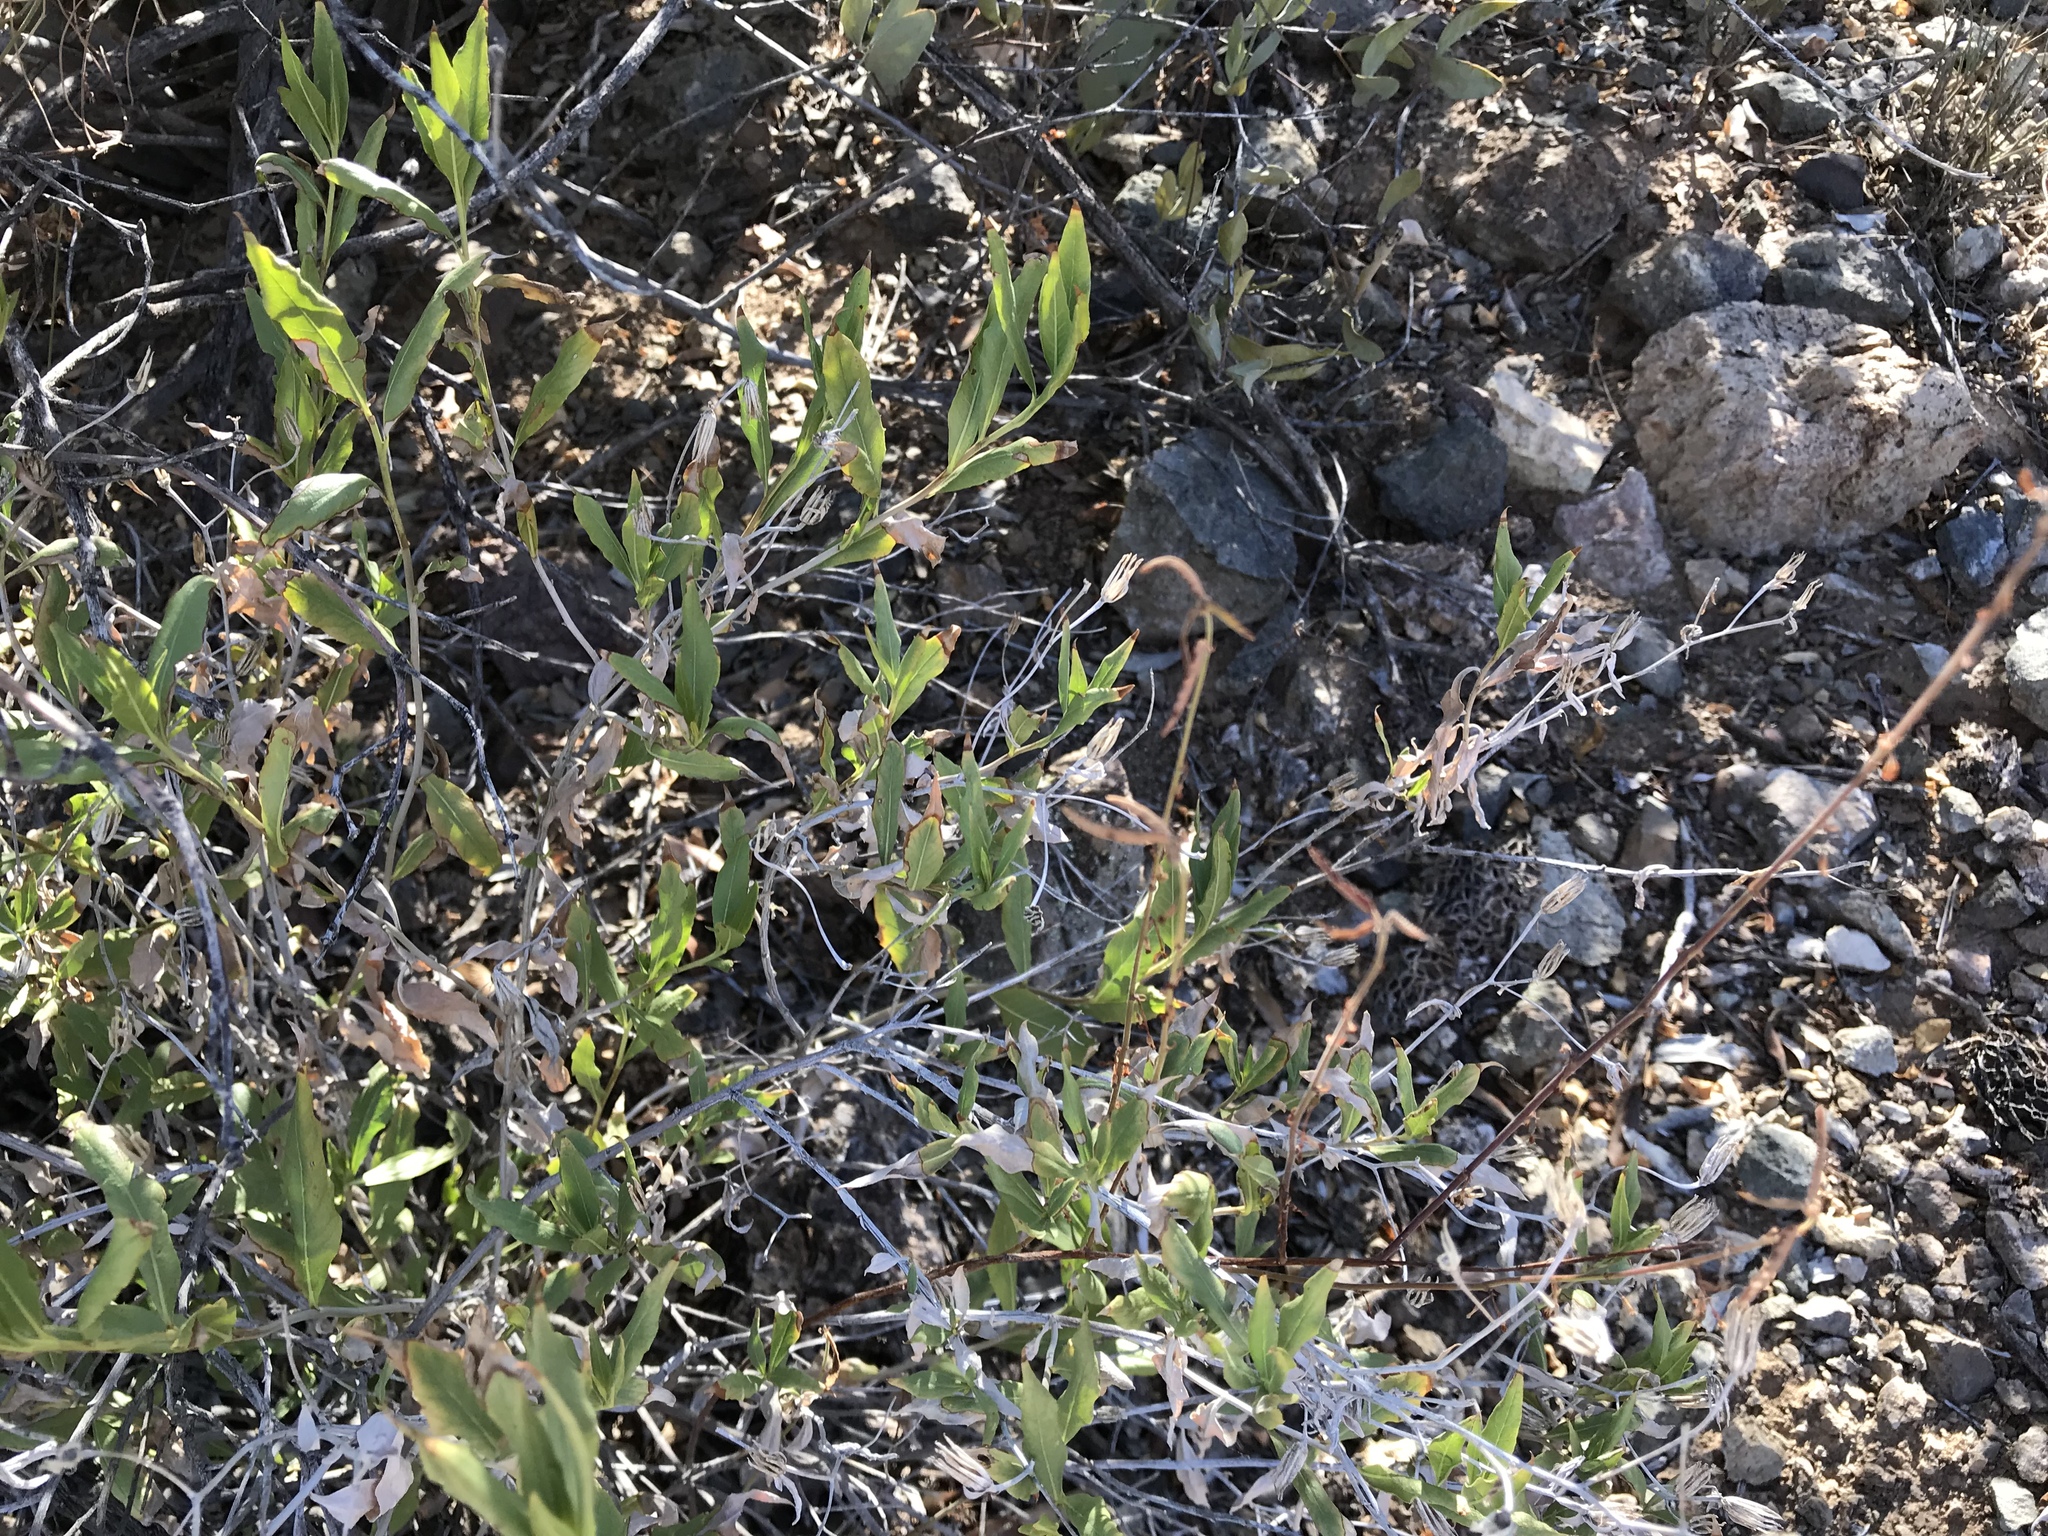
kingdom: Plantae
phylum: Tracheophyta
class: Magnoliopsida
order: Asterales
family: Asteraceae
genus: Baccharis
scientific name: Baccharis salicifolia
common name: Sticky baccharis
